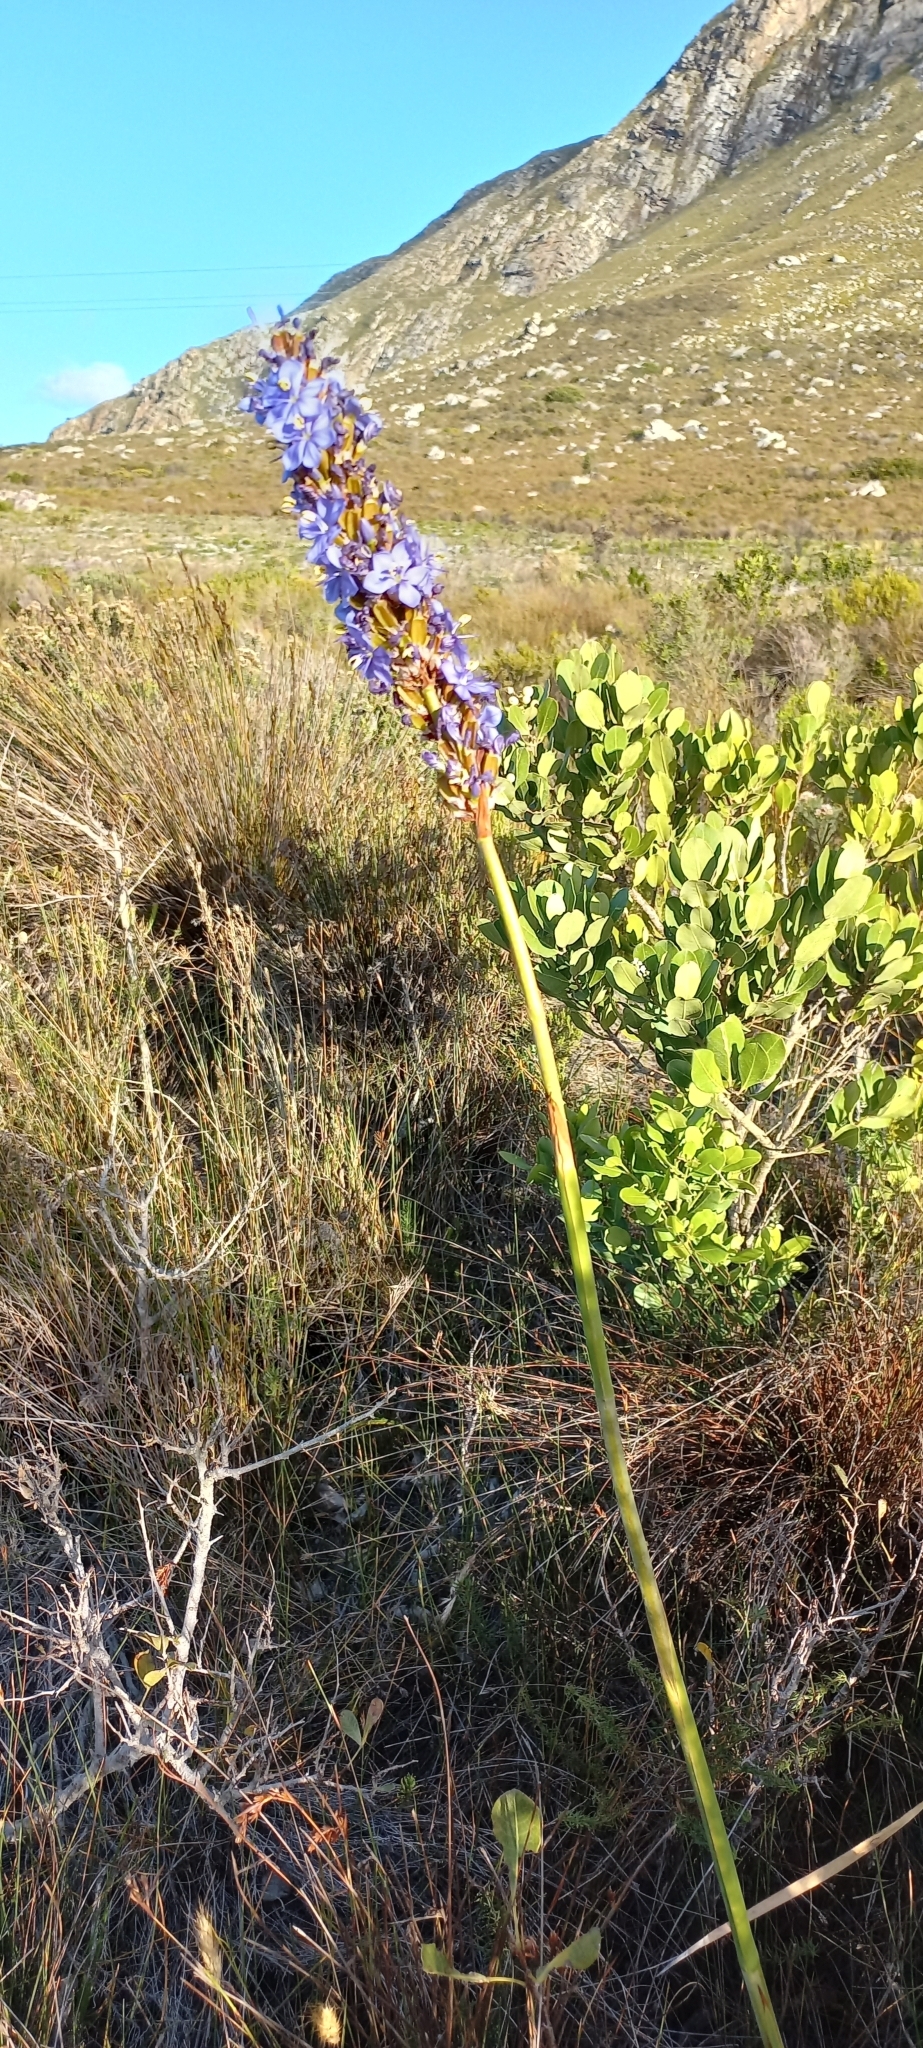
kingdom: Plantae
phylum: Tracheophyta
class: Liliopsida
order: Asparagales
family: Iridaceae
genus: Aristea
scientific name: Aristea capitata
